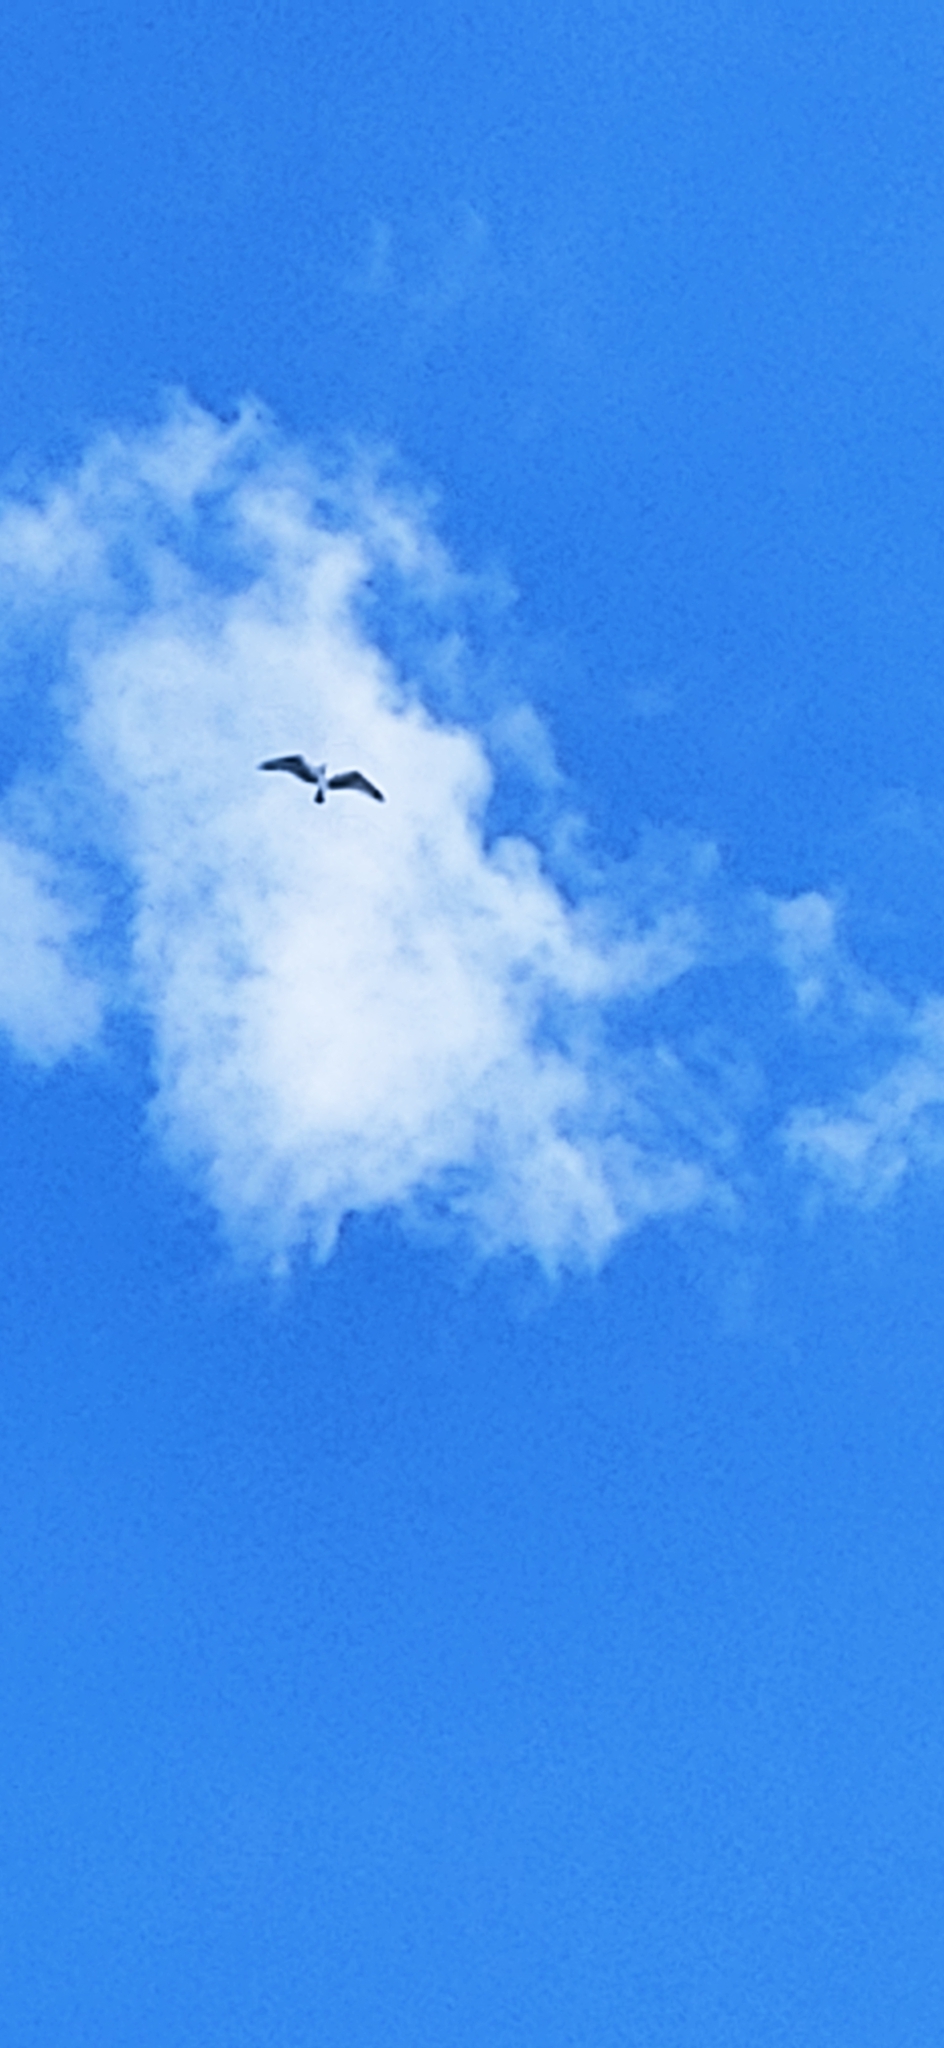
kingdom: Animalia
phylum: Chordata
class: Aves
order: Accipitriformes
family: Pandionidae
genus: Pandion
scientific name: Pandion haliaetus
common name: Osprey
